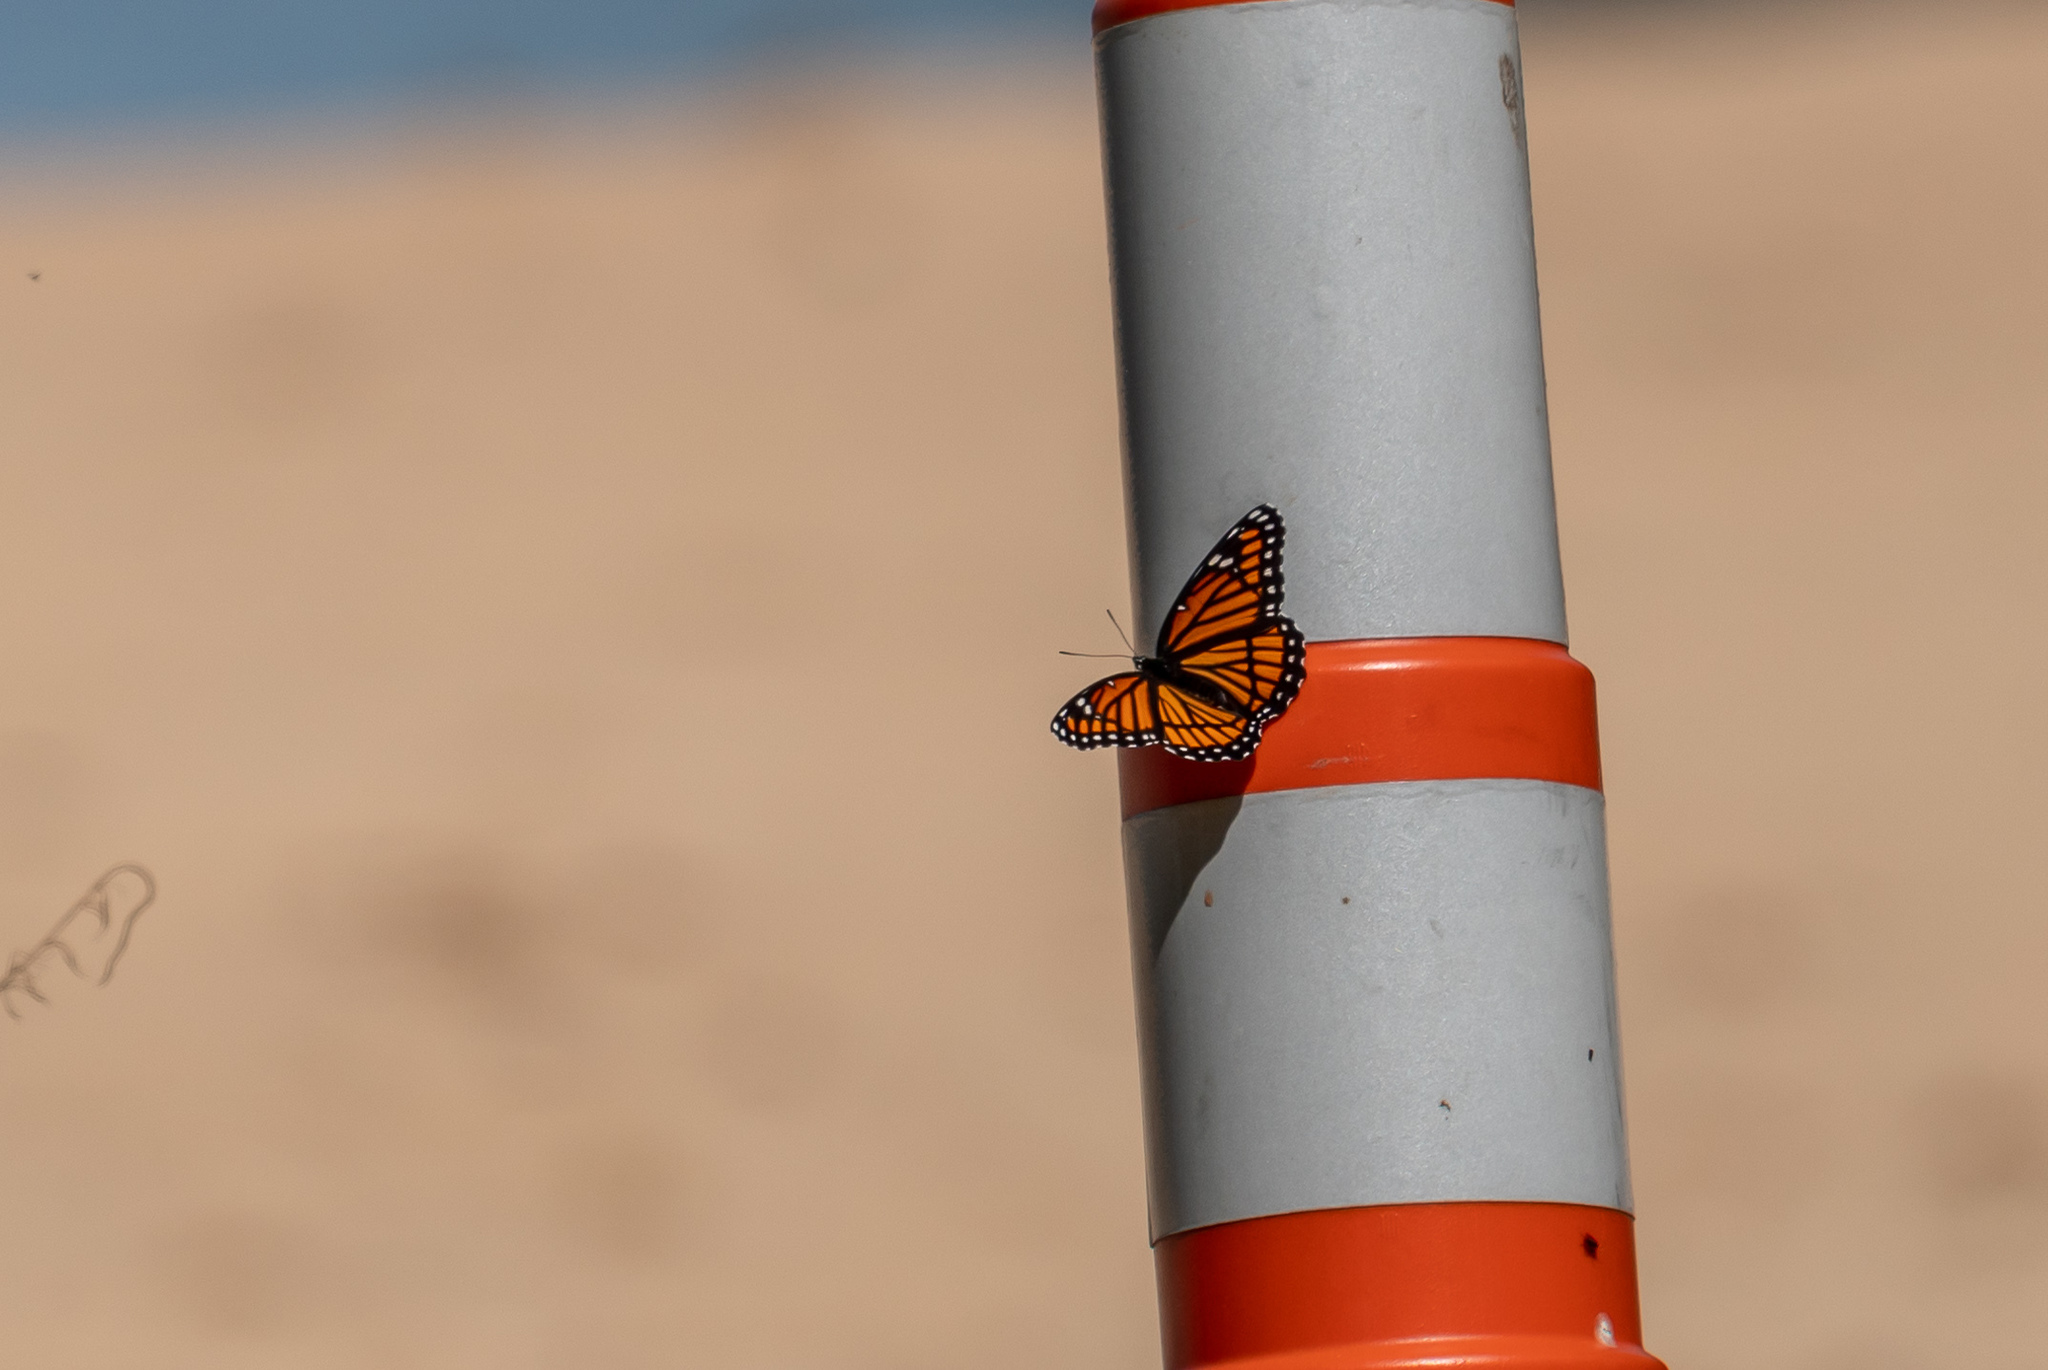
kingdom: Animalia
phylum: Arthropoda
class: Insecta
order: Lepidoptera
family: Nymphalidae
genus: Limenitis
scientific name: Limenitis archippus
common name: Viceroy
